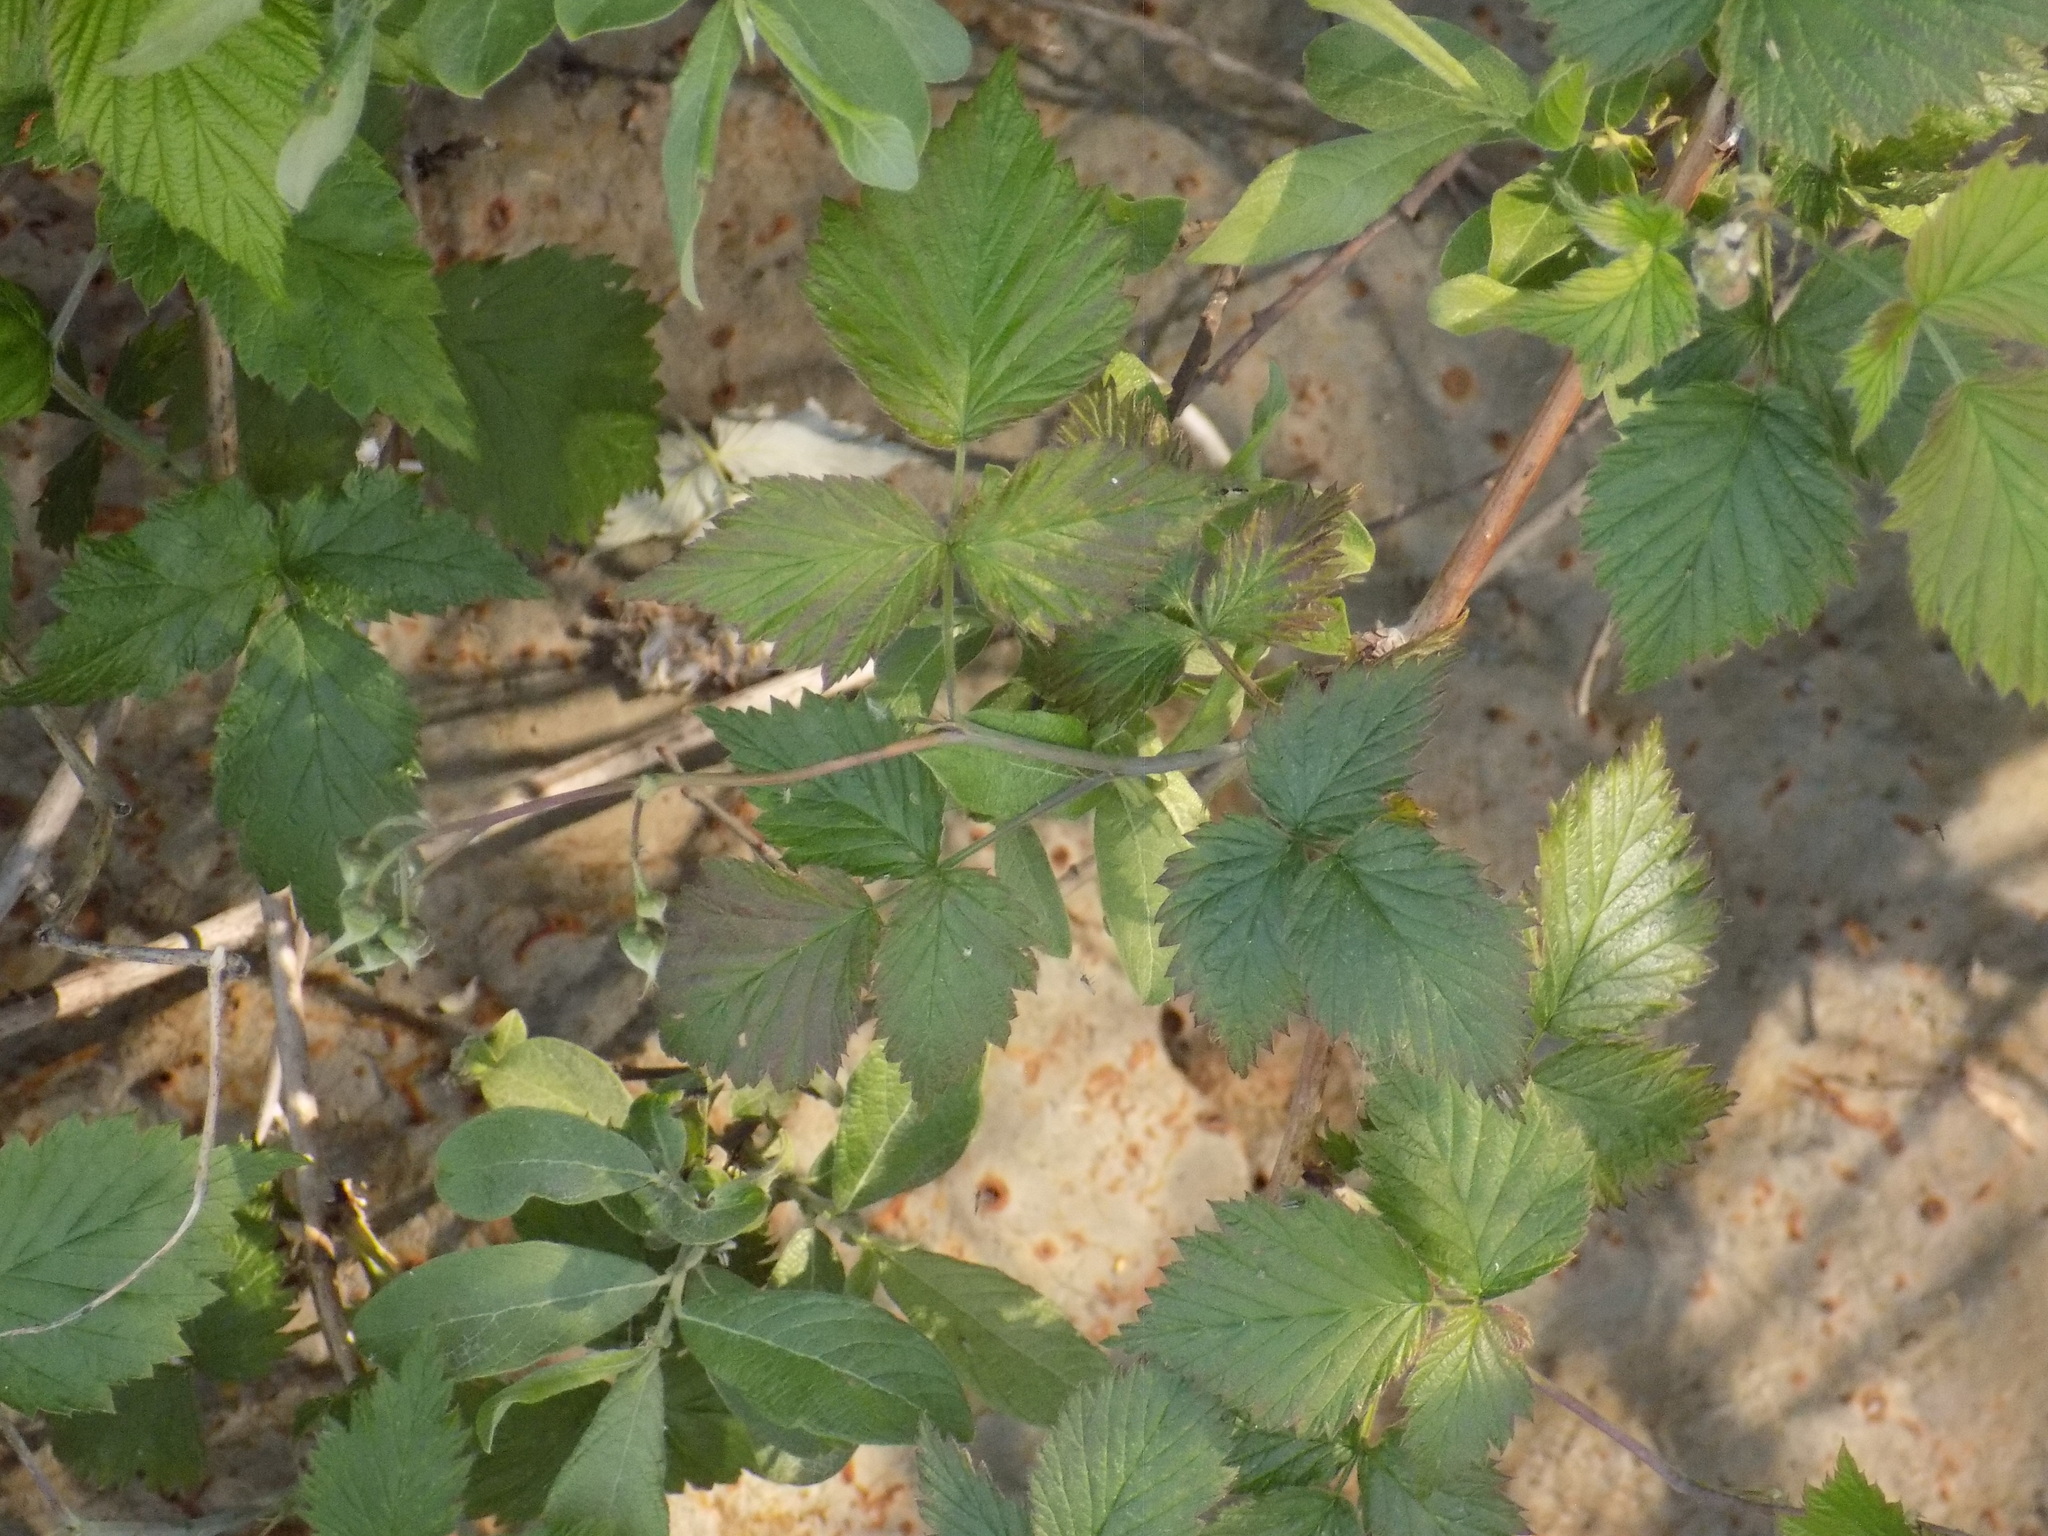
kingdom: Plantae
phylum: Tracheophyta
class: Magnoliopsida
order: Rosales
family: Rosaceae
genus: Rubus
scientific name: Rubus idaeus
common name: Raspberry
